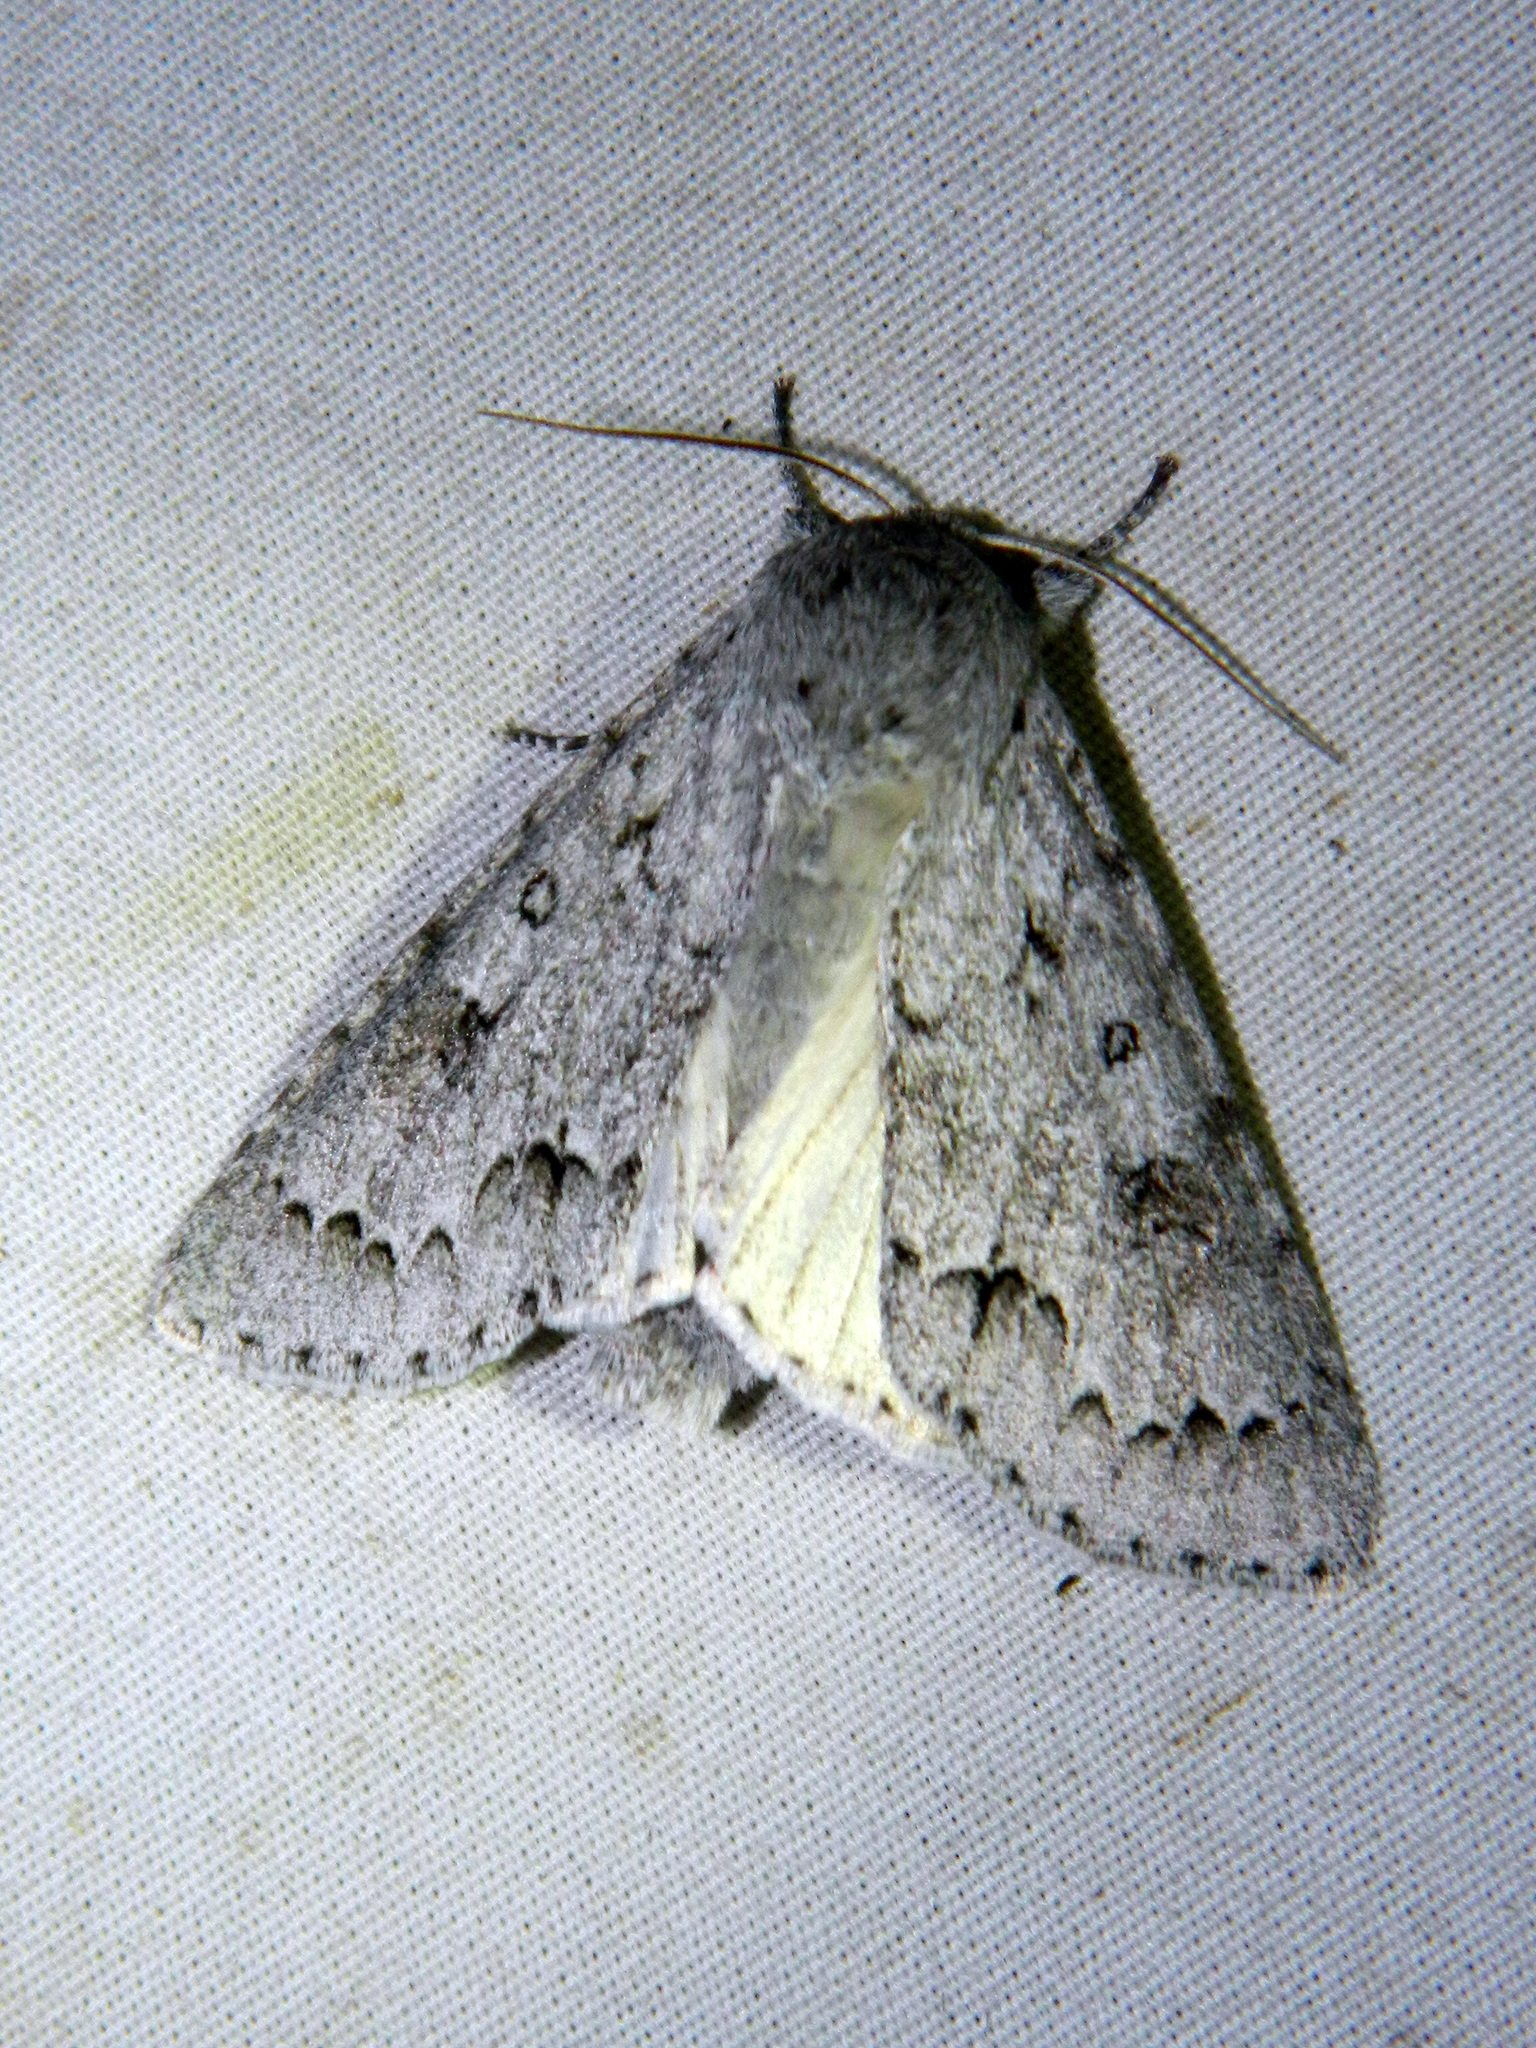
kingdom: Animalia
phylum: Arthropoda
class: Insecta
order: Lepidoptera
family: Noctuidae
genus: Acronicta
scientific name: Acronicta insita
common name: Large gray dagger
